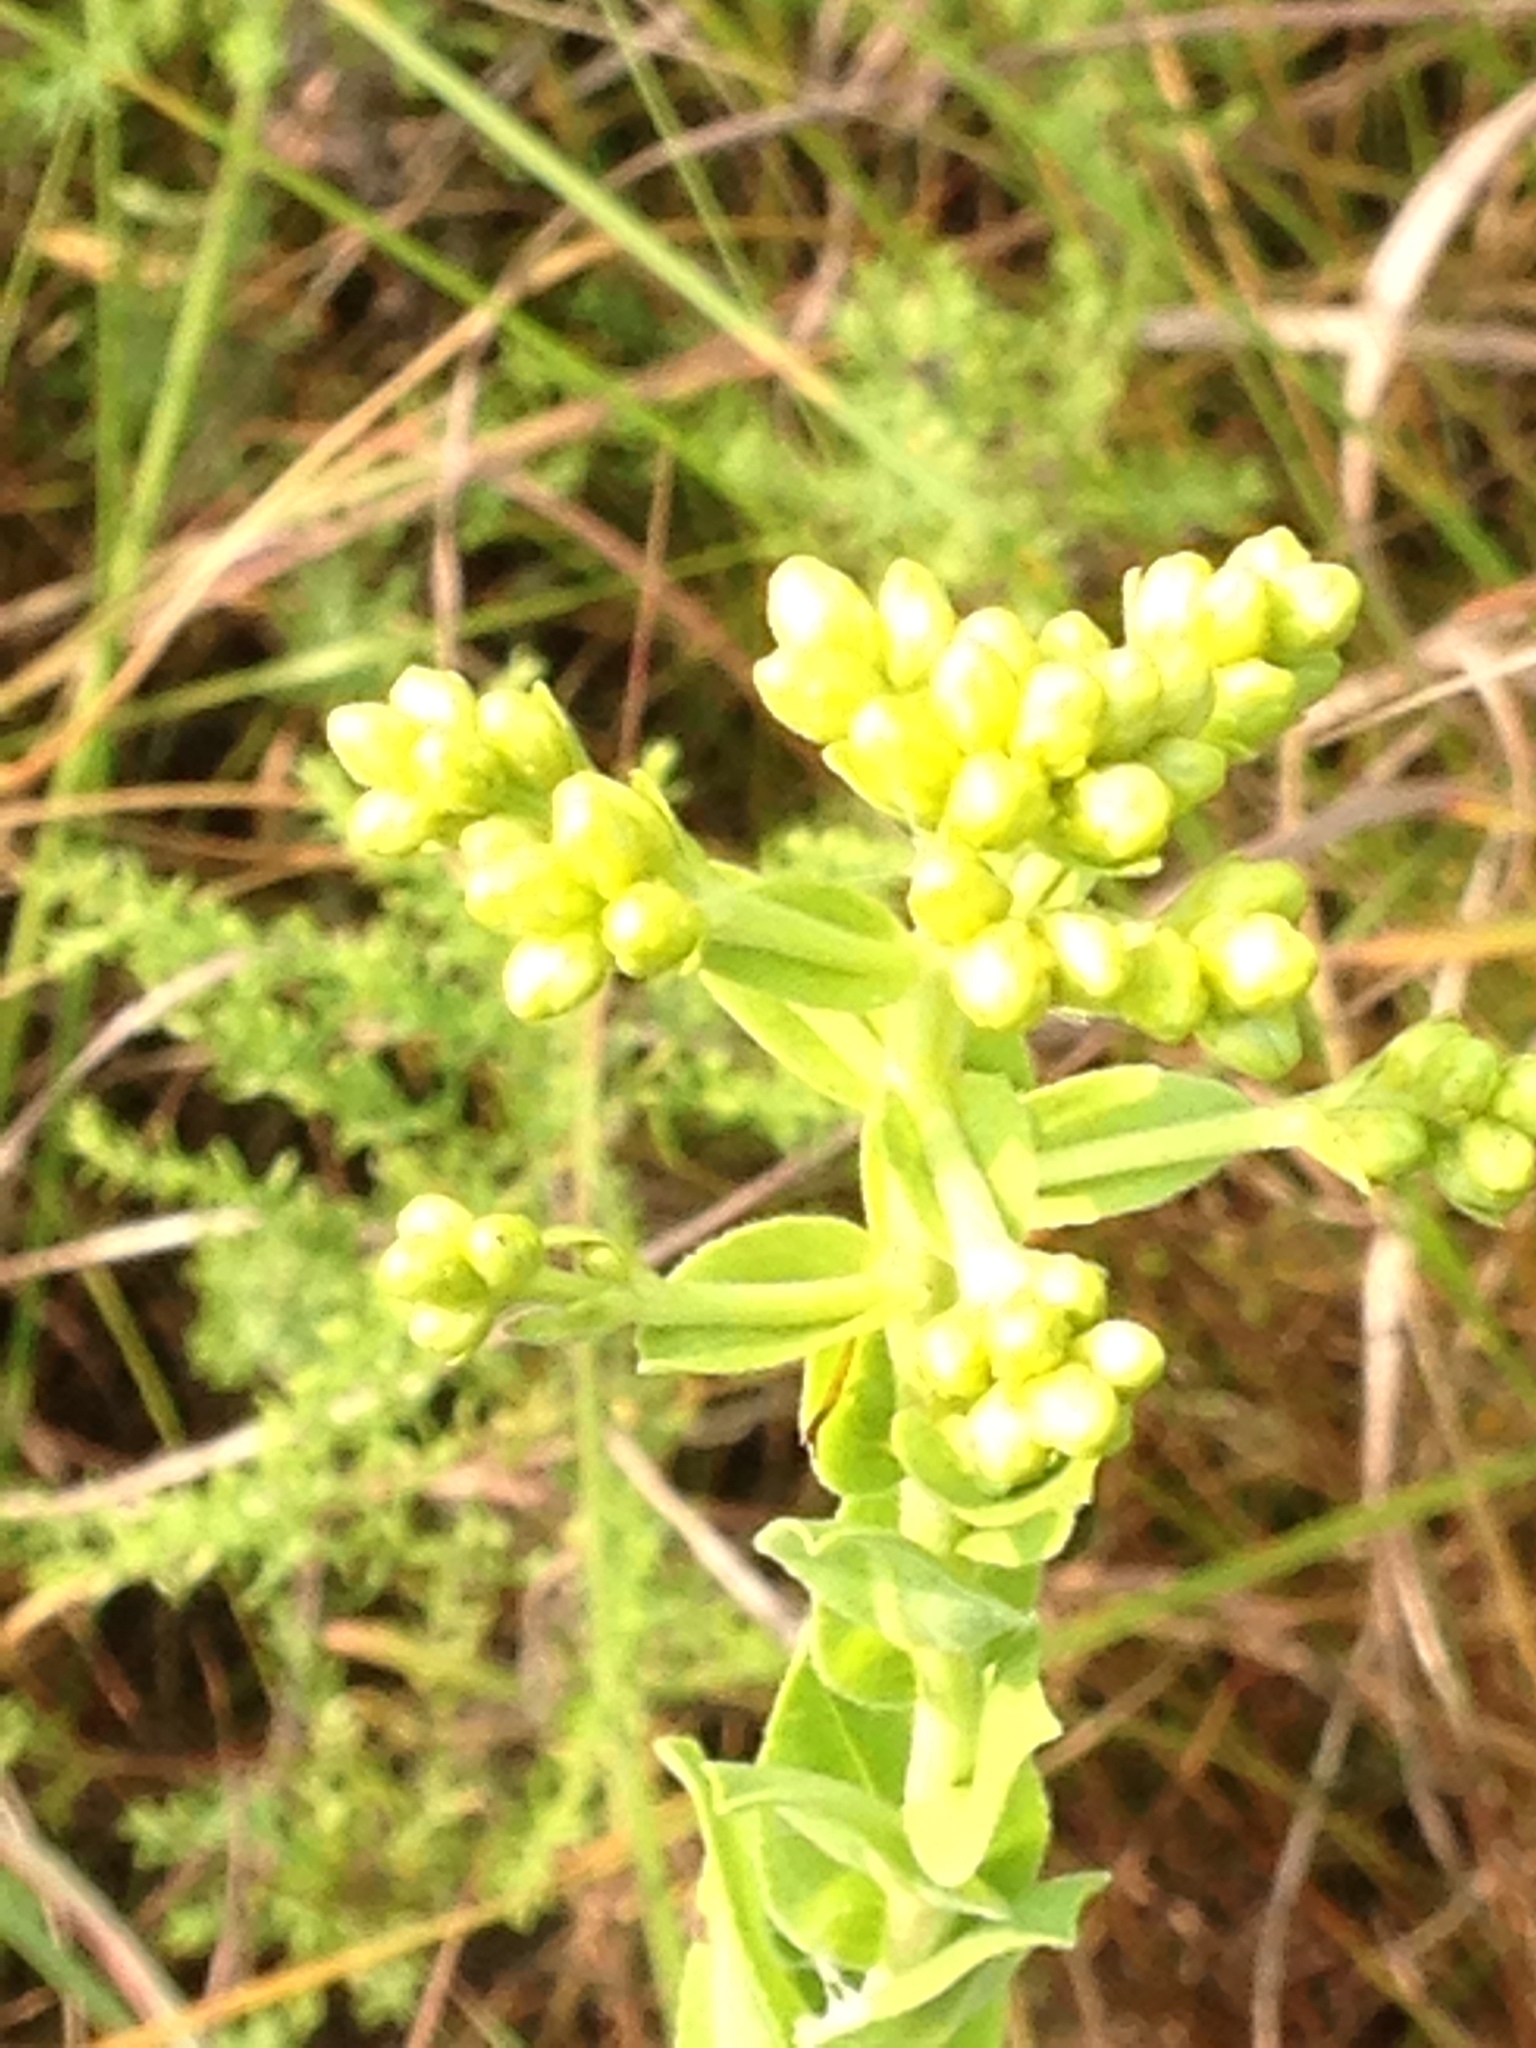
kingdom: Plantae
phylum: Tracheophyta
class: Magnoliopsida
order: Asterales
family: Asteraceae
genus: Solidago
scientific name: Solidago rigida
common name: Rigid goldenrod
